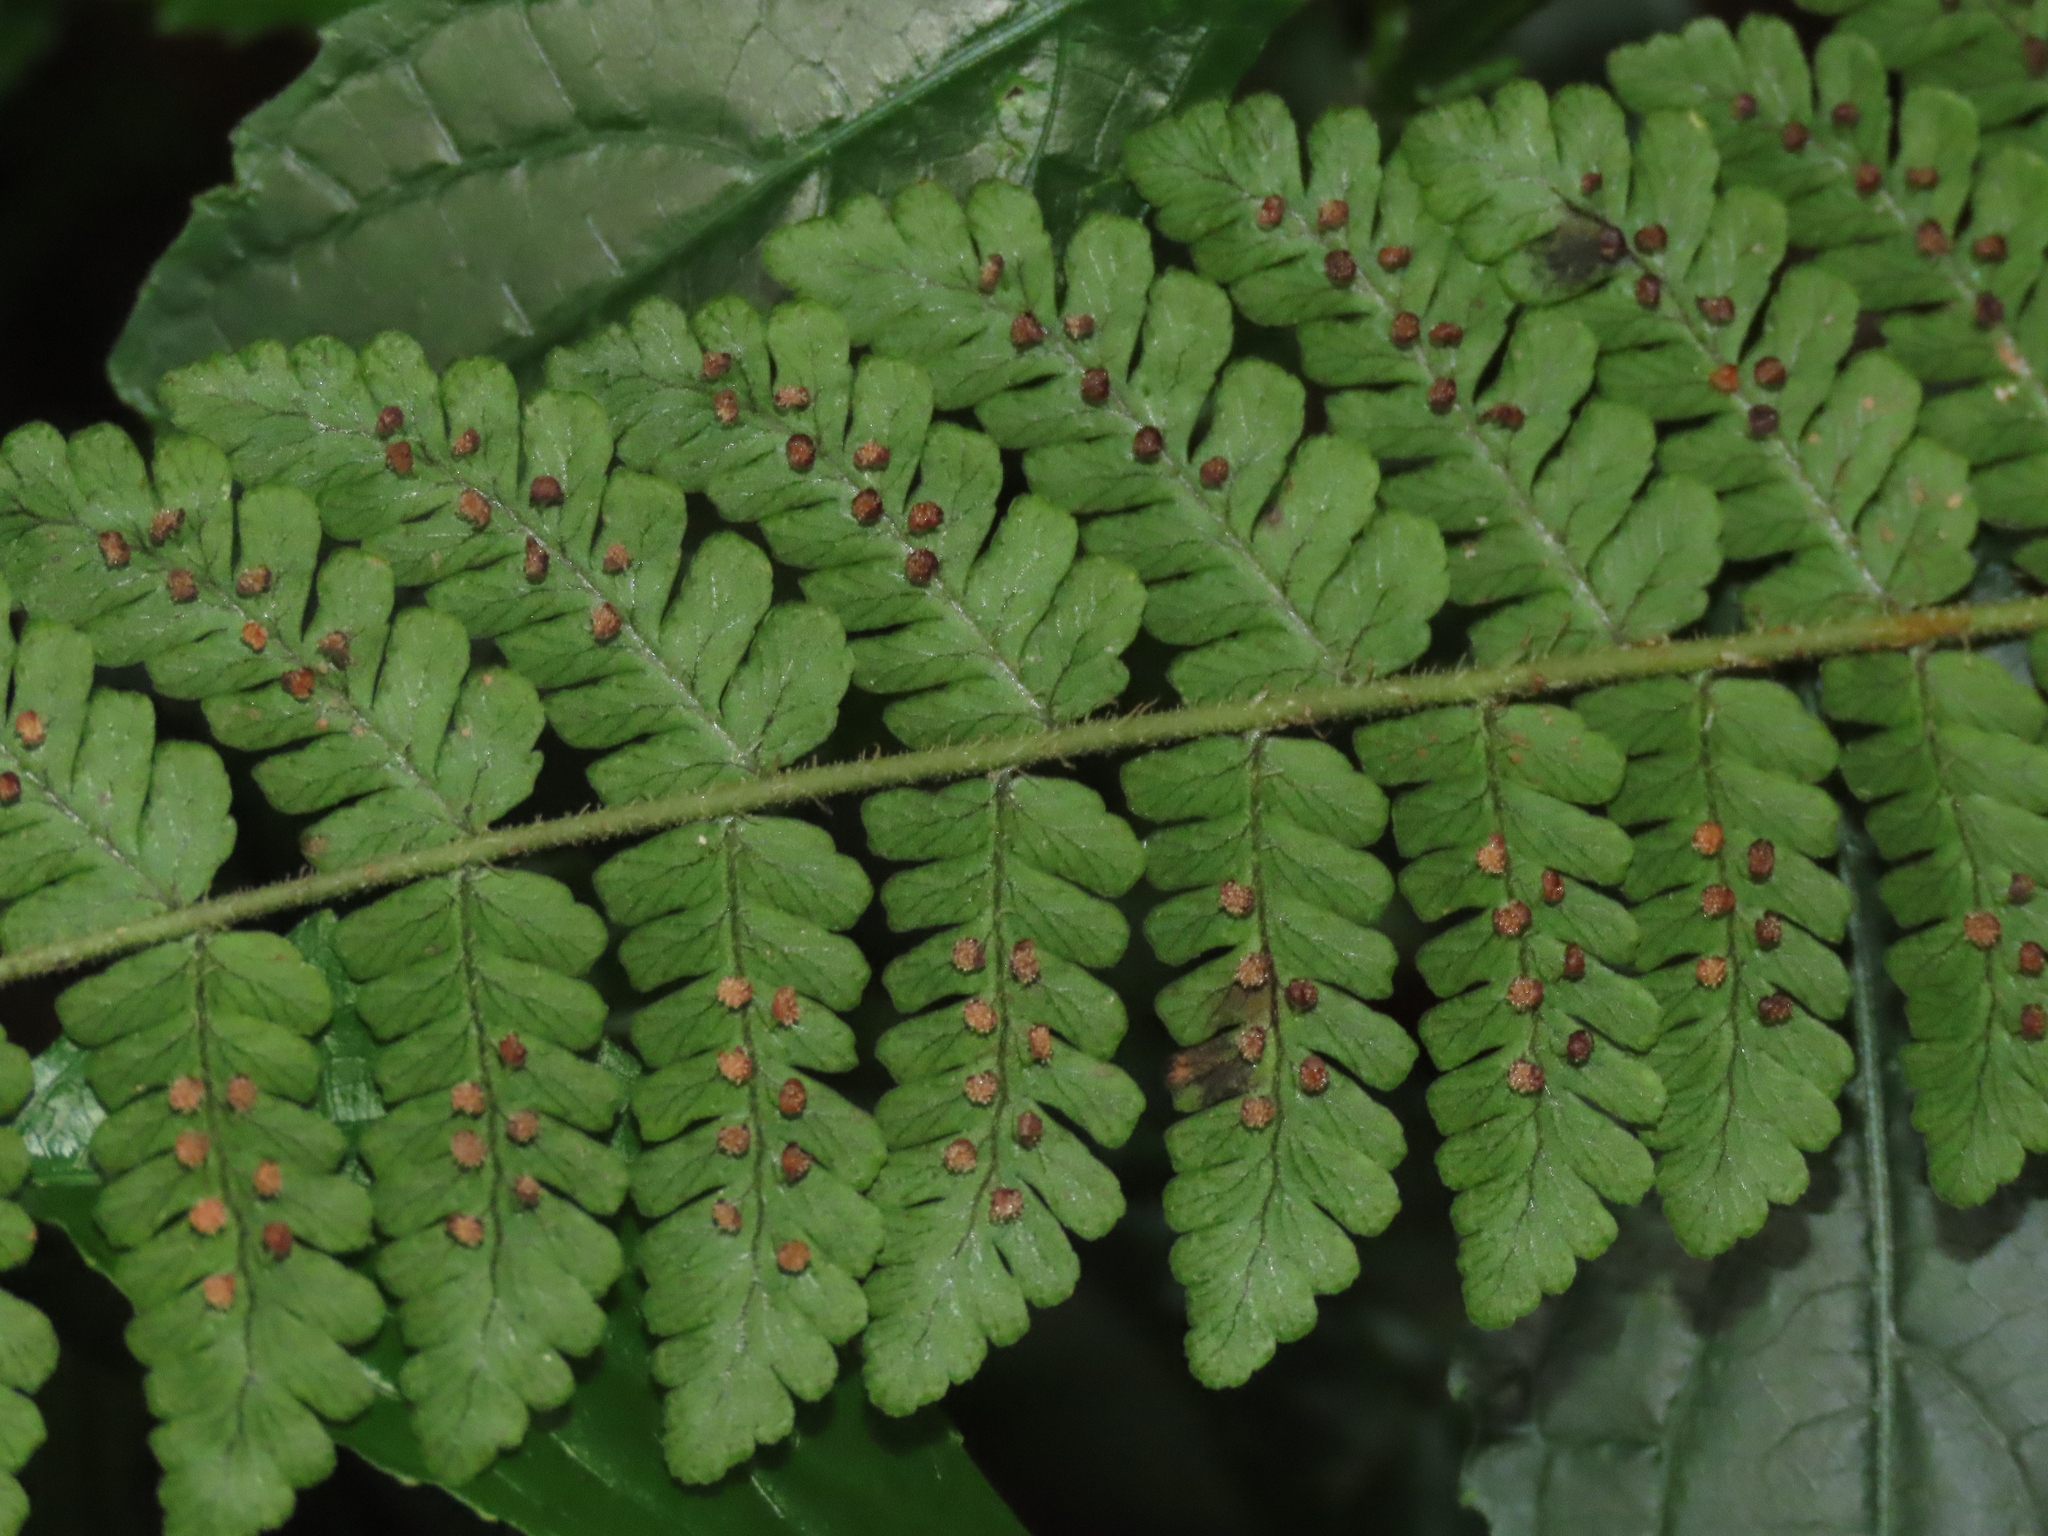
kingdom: Plantae
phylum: Tracheophyta
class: Polypodiopsida
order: Polypodiales
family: Dryopteridaceae
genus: Dryopteris
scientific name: Dryopteris peranema
